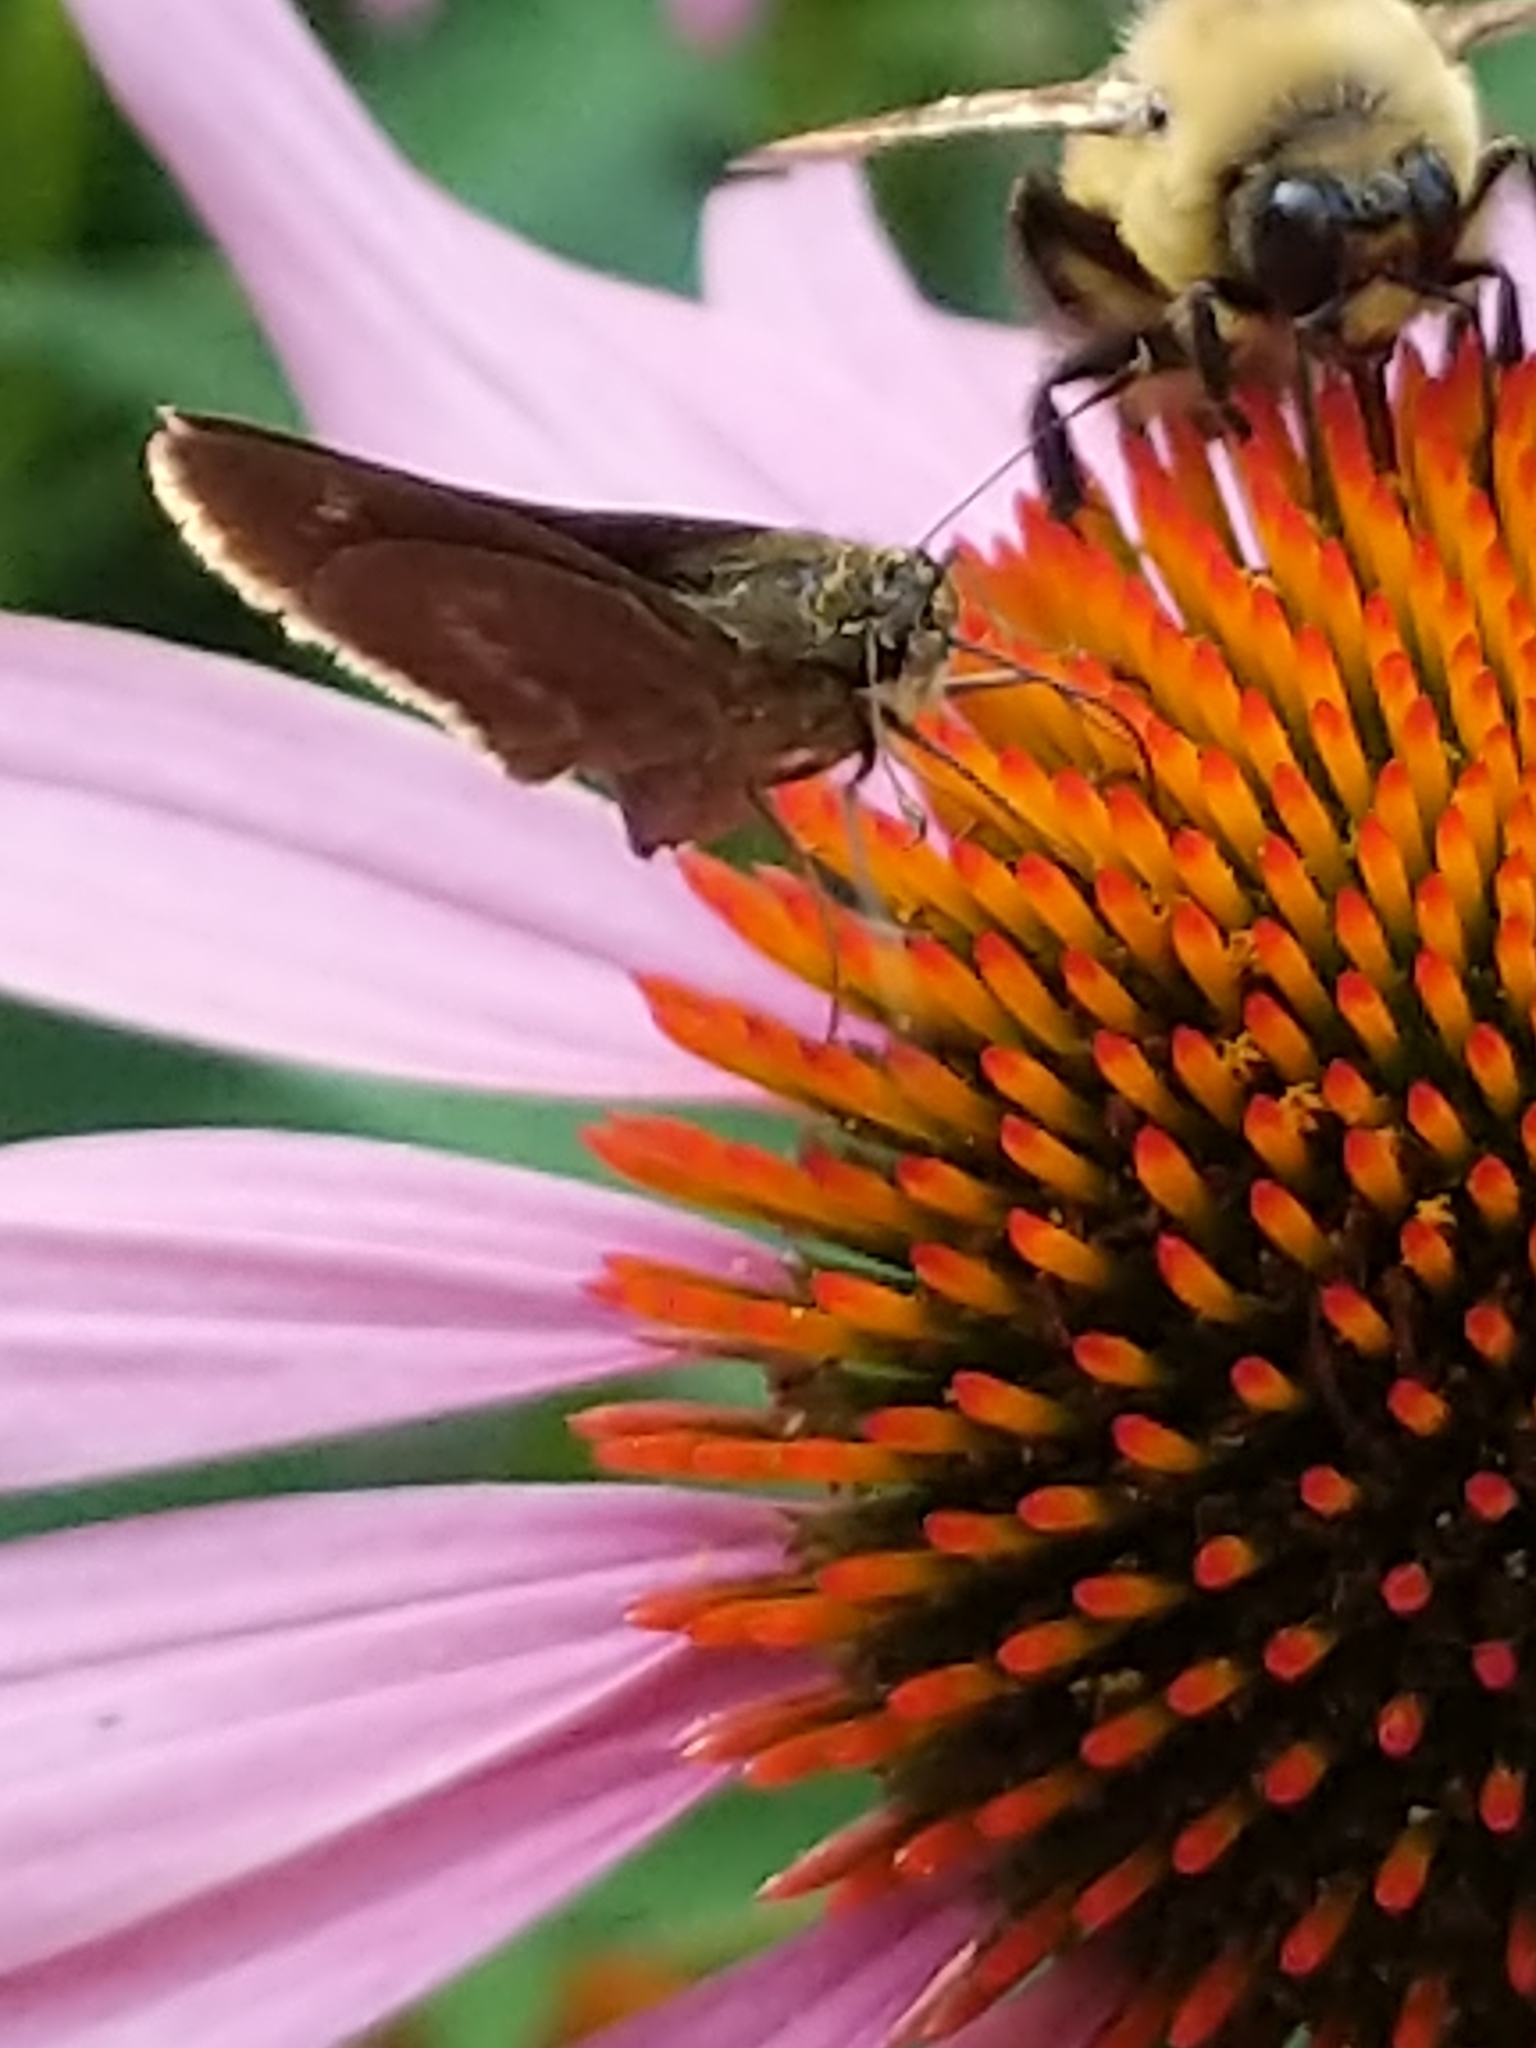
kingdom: Animalia
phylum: Arthropoda
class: Insecta
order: Lepidoptera
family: Hesperiidae
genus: Polites
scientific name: Polites egeremet
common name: Northern broken-dash
